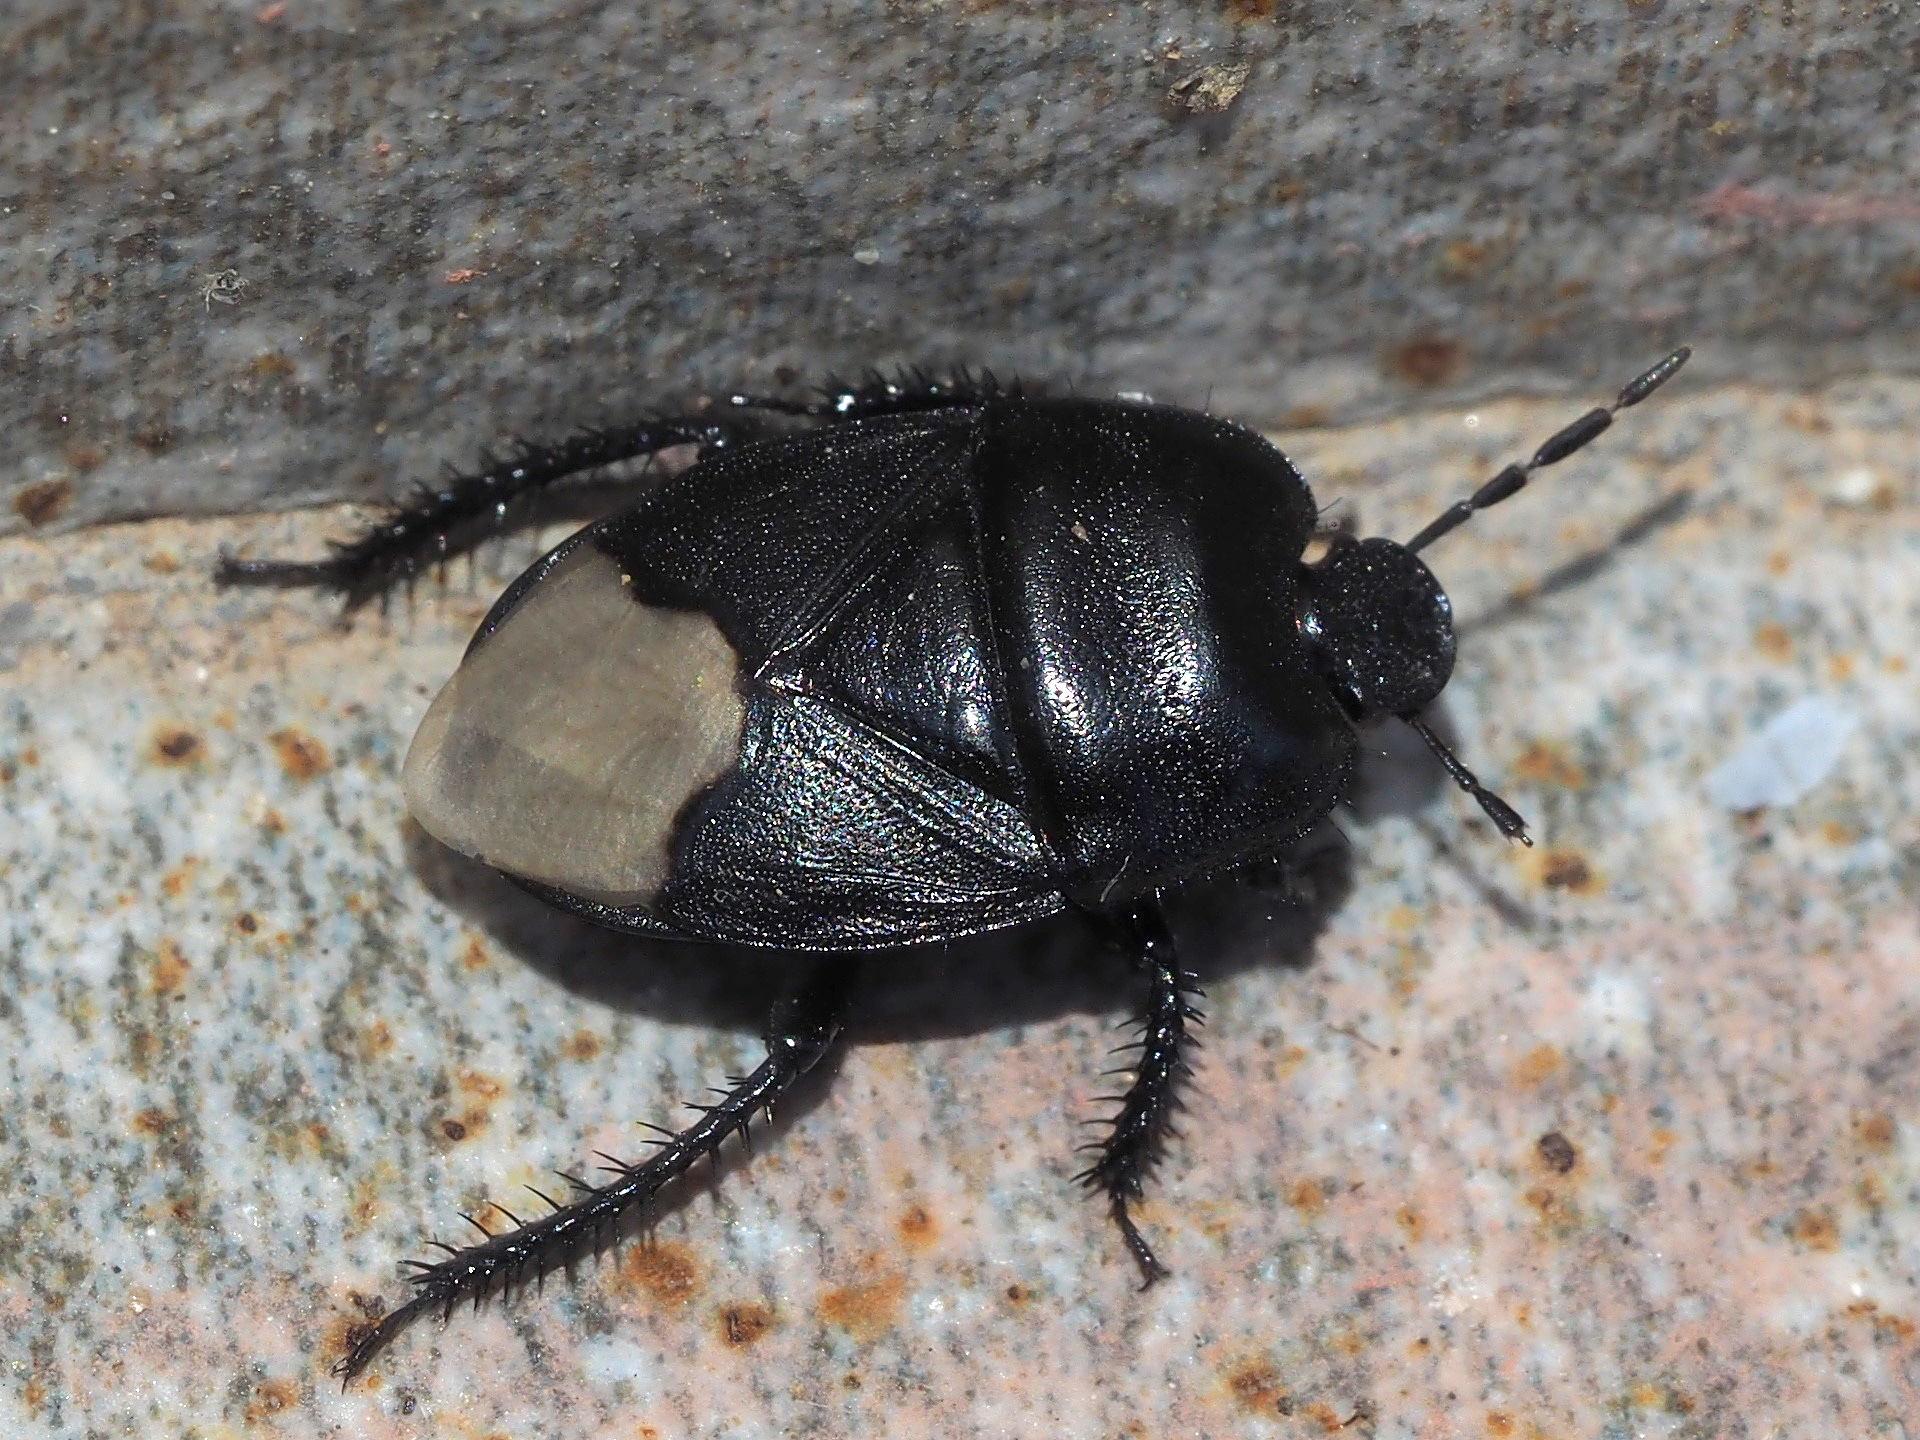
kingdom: Animalia
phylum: Arthropoda
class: Insecta
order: Hemiptera
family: Cydnidae
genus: Cydnus
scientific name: Cydnus aterrimus
